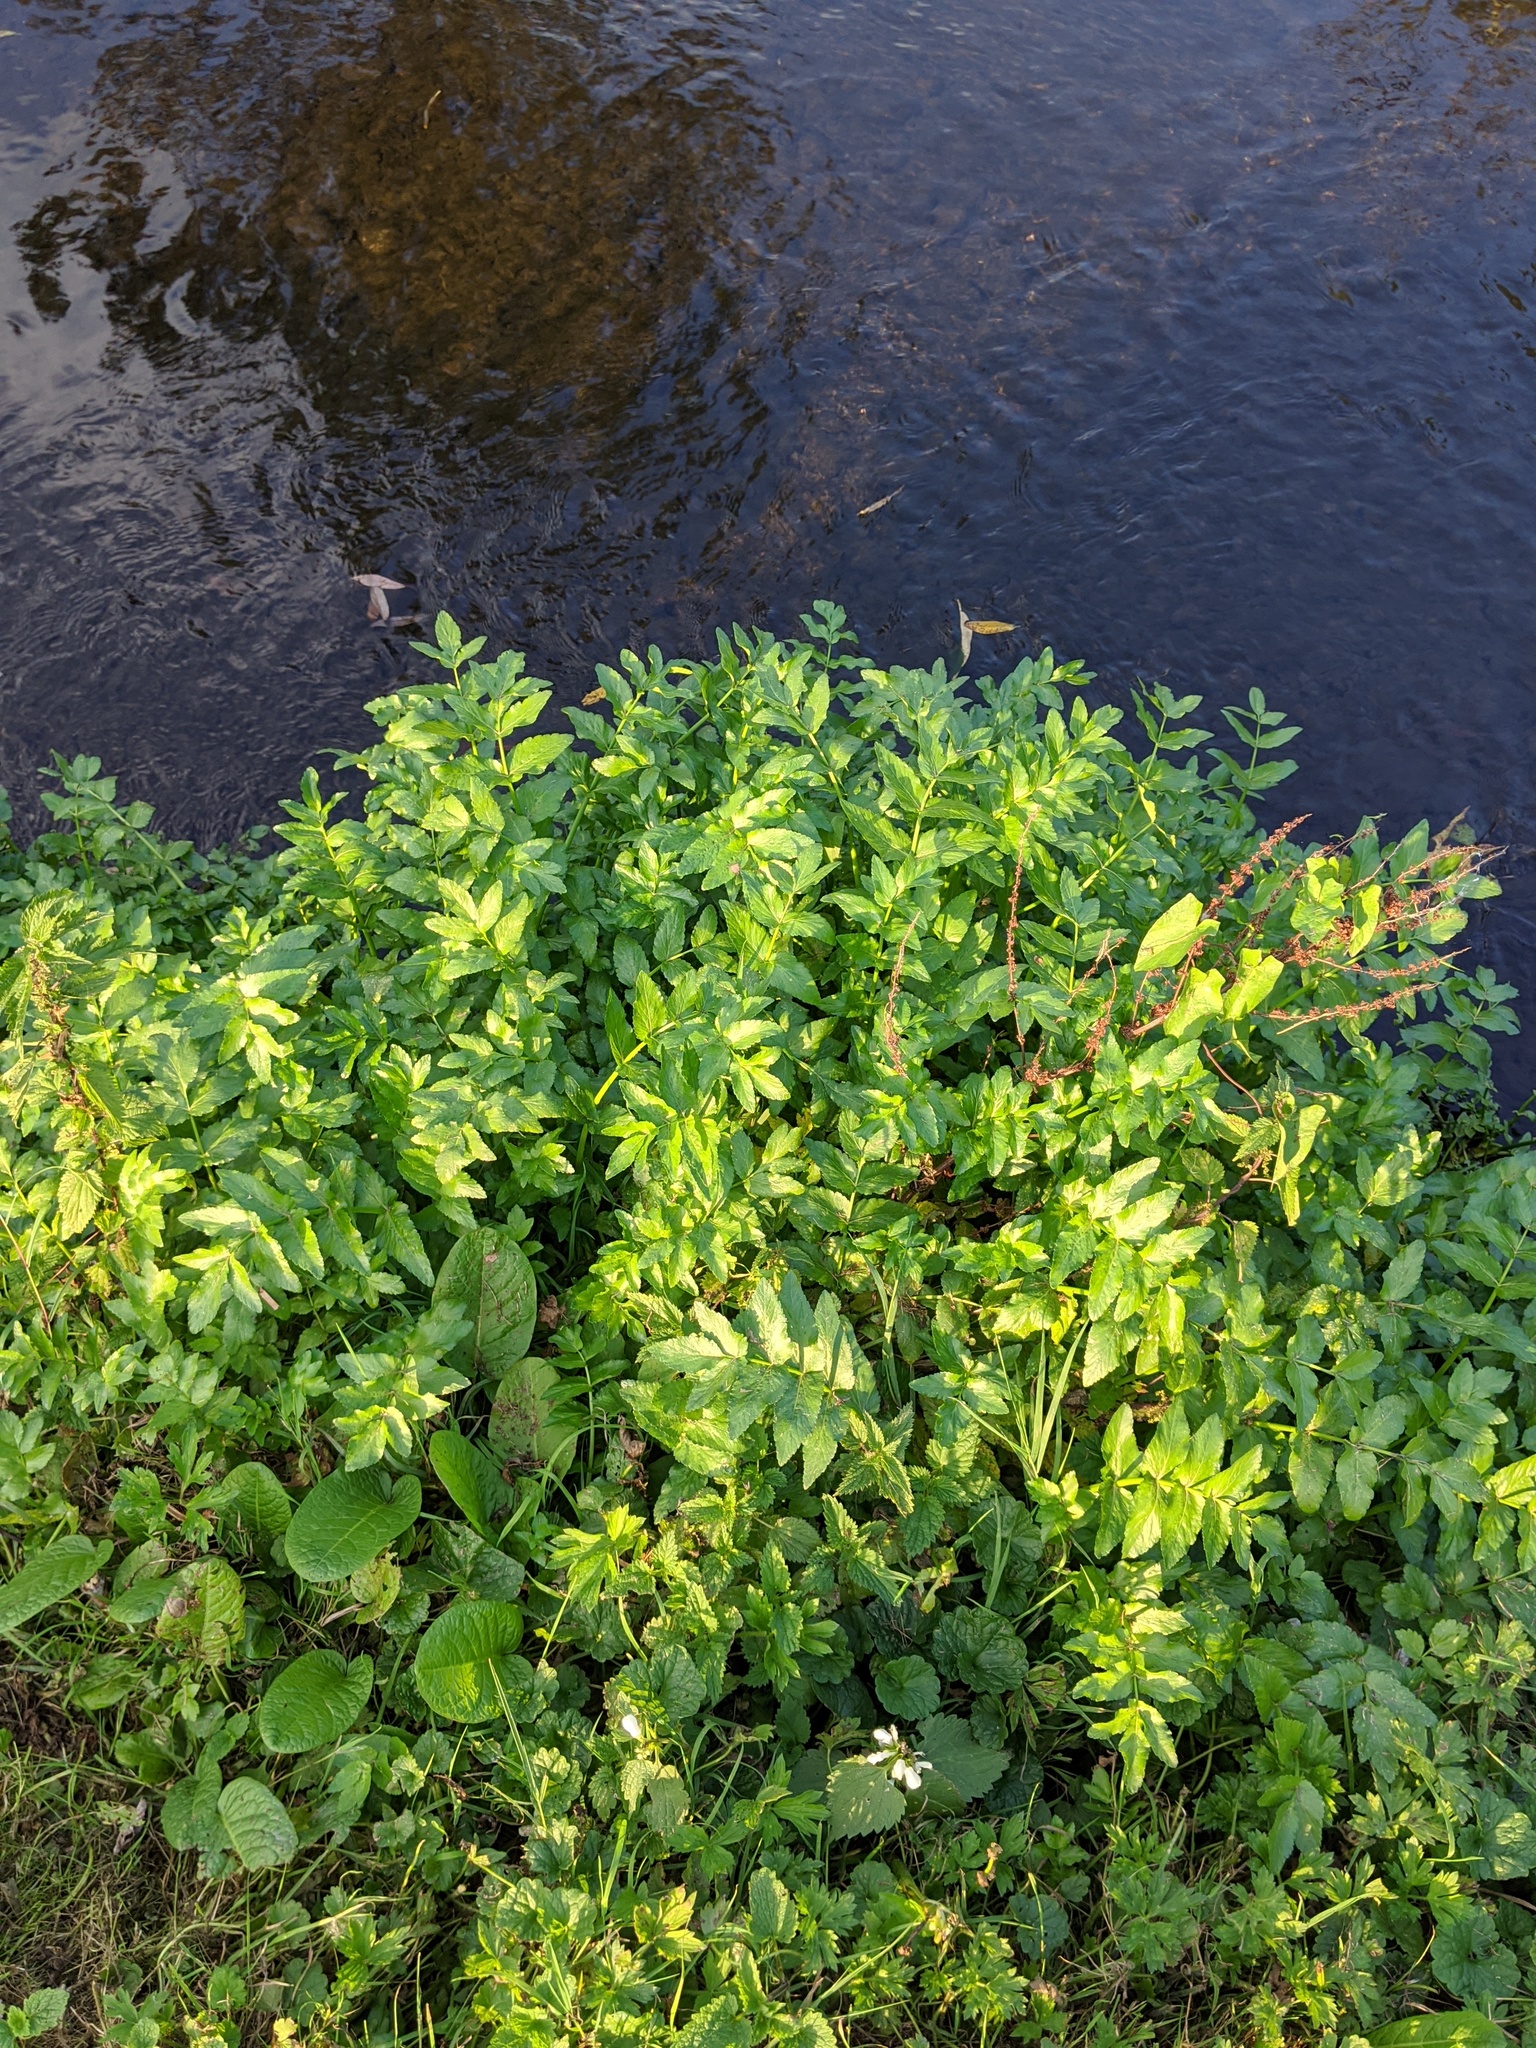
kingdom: Plantae
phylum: Tracheophyta
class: Magnoliopsida
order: Apiales
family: Apiaceae
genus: Helosciadium
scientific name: Helosciadium nodiflorum
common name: Fool's-watercress
